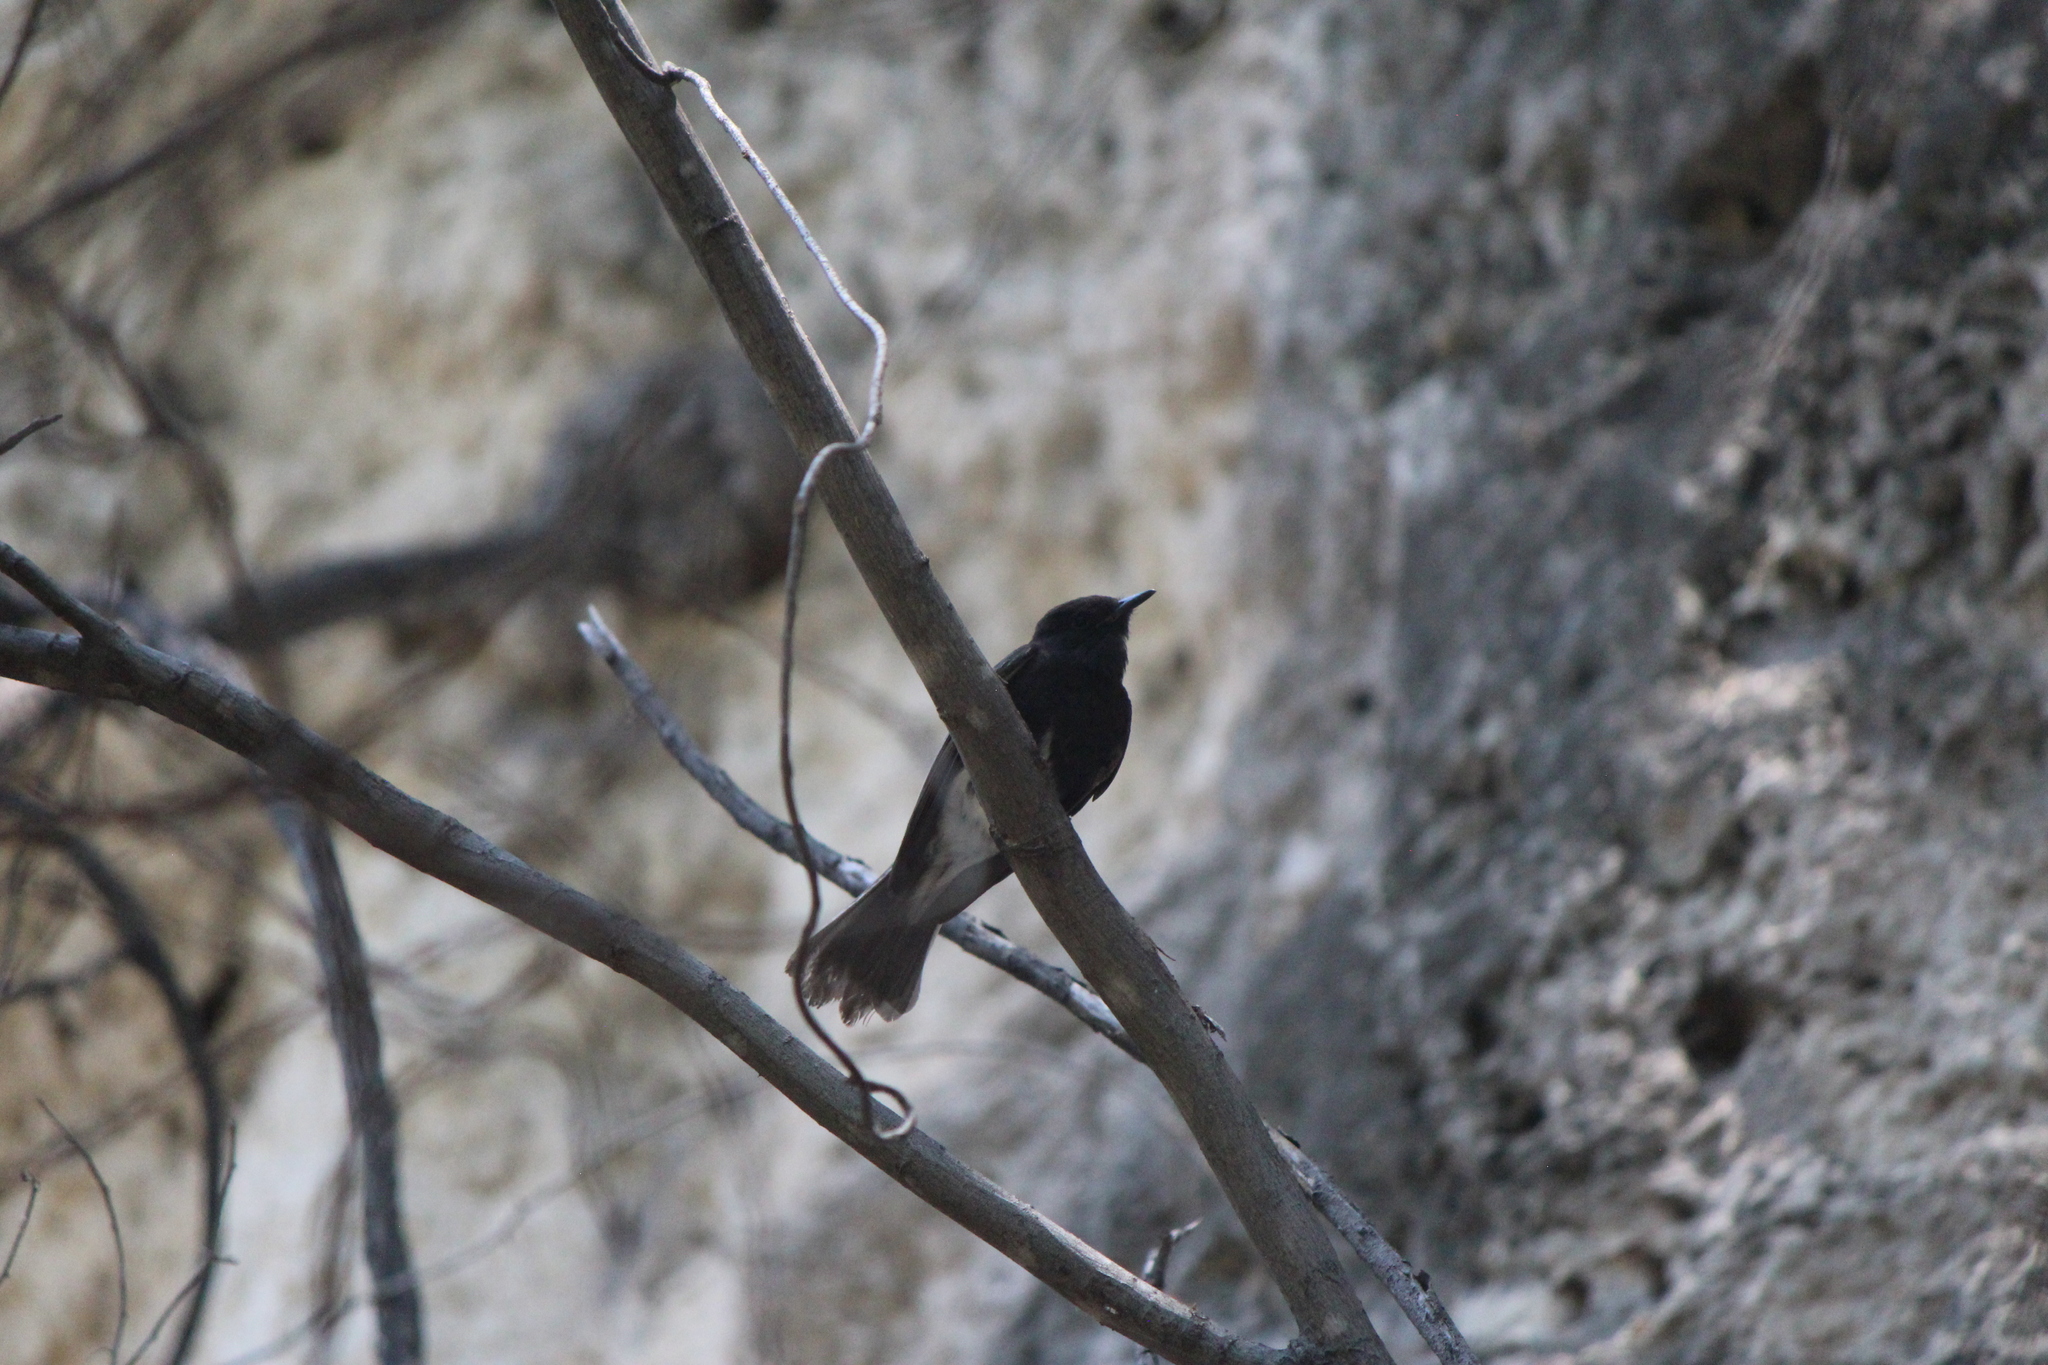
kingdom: Animalia
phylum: Chordata
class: Aves
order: Passeriformes
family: Tyrannidae
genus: Sayornis
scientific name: Sayornis nigricans
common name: Black phoebe
